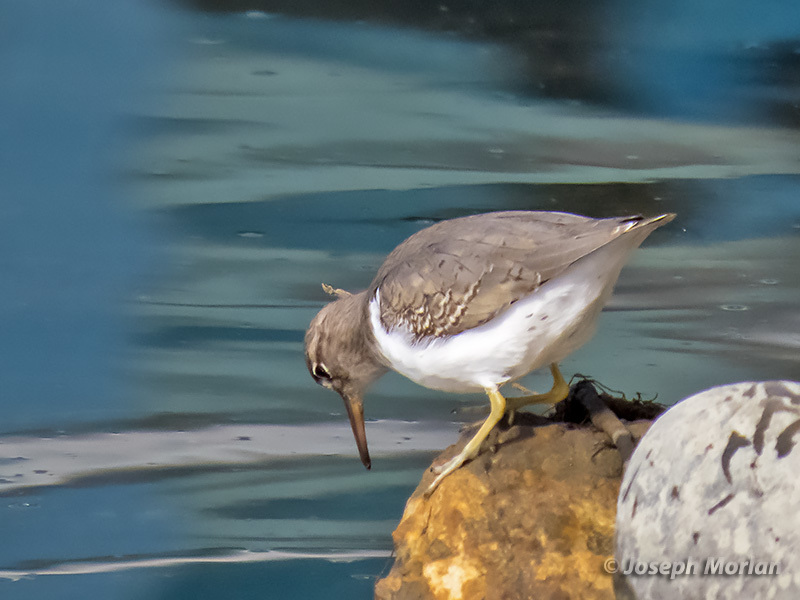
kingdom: Animalia
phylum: Chordata
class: Aves
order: Charadriiformes
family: Scolopacidae
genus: Actitis
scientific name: Actitis macularius
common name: Spotted sandpiper
